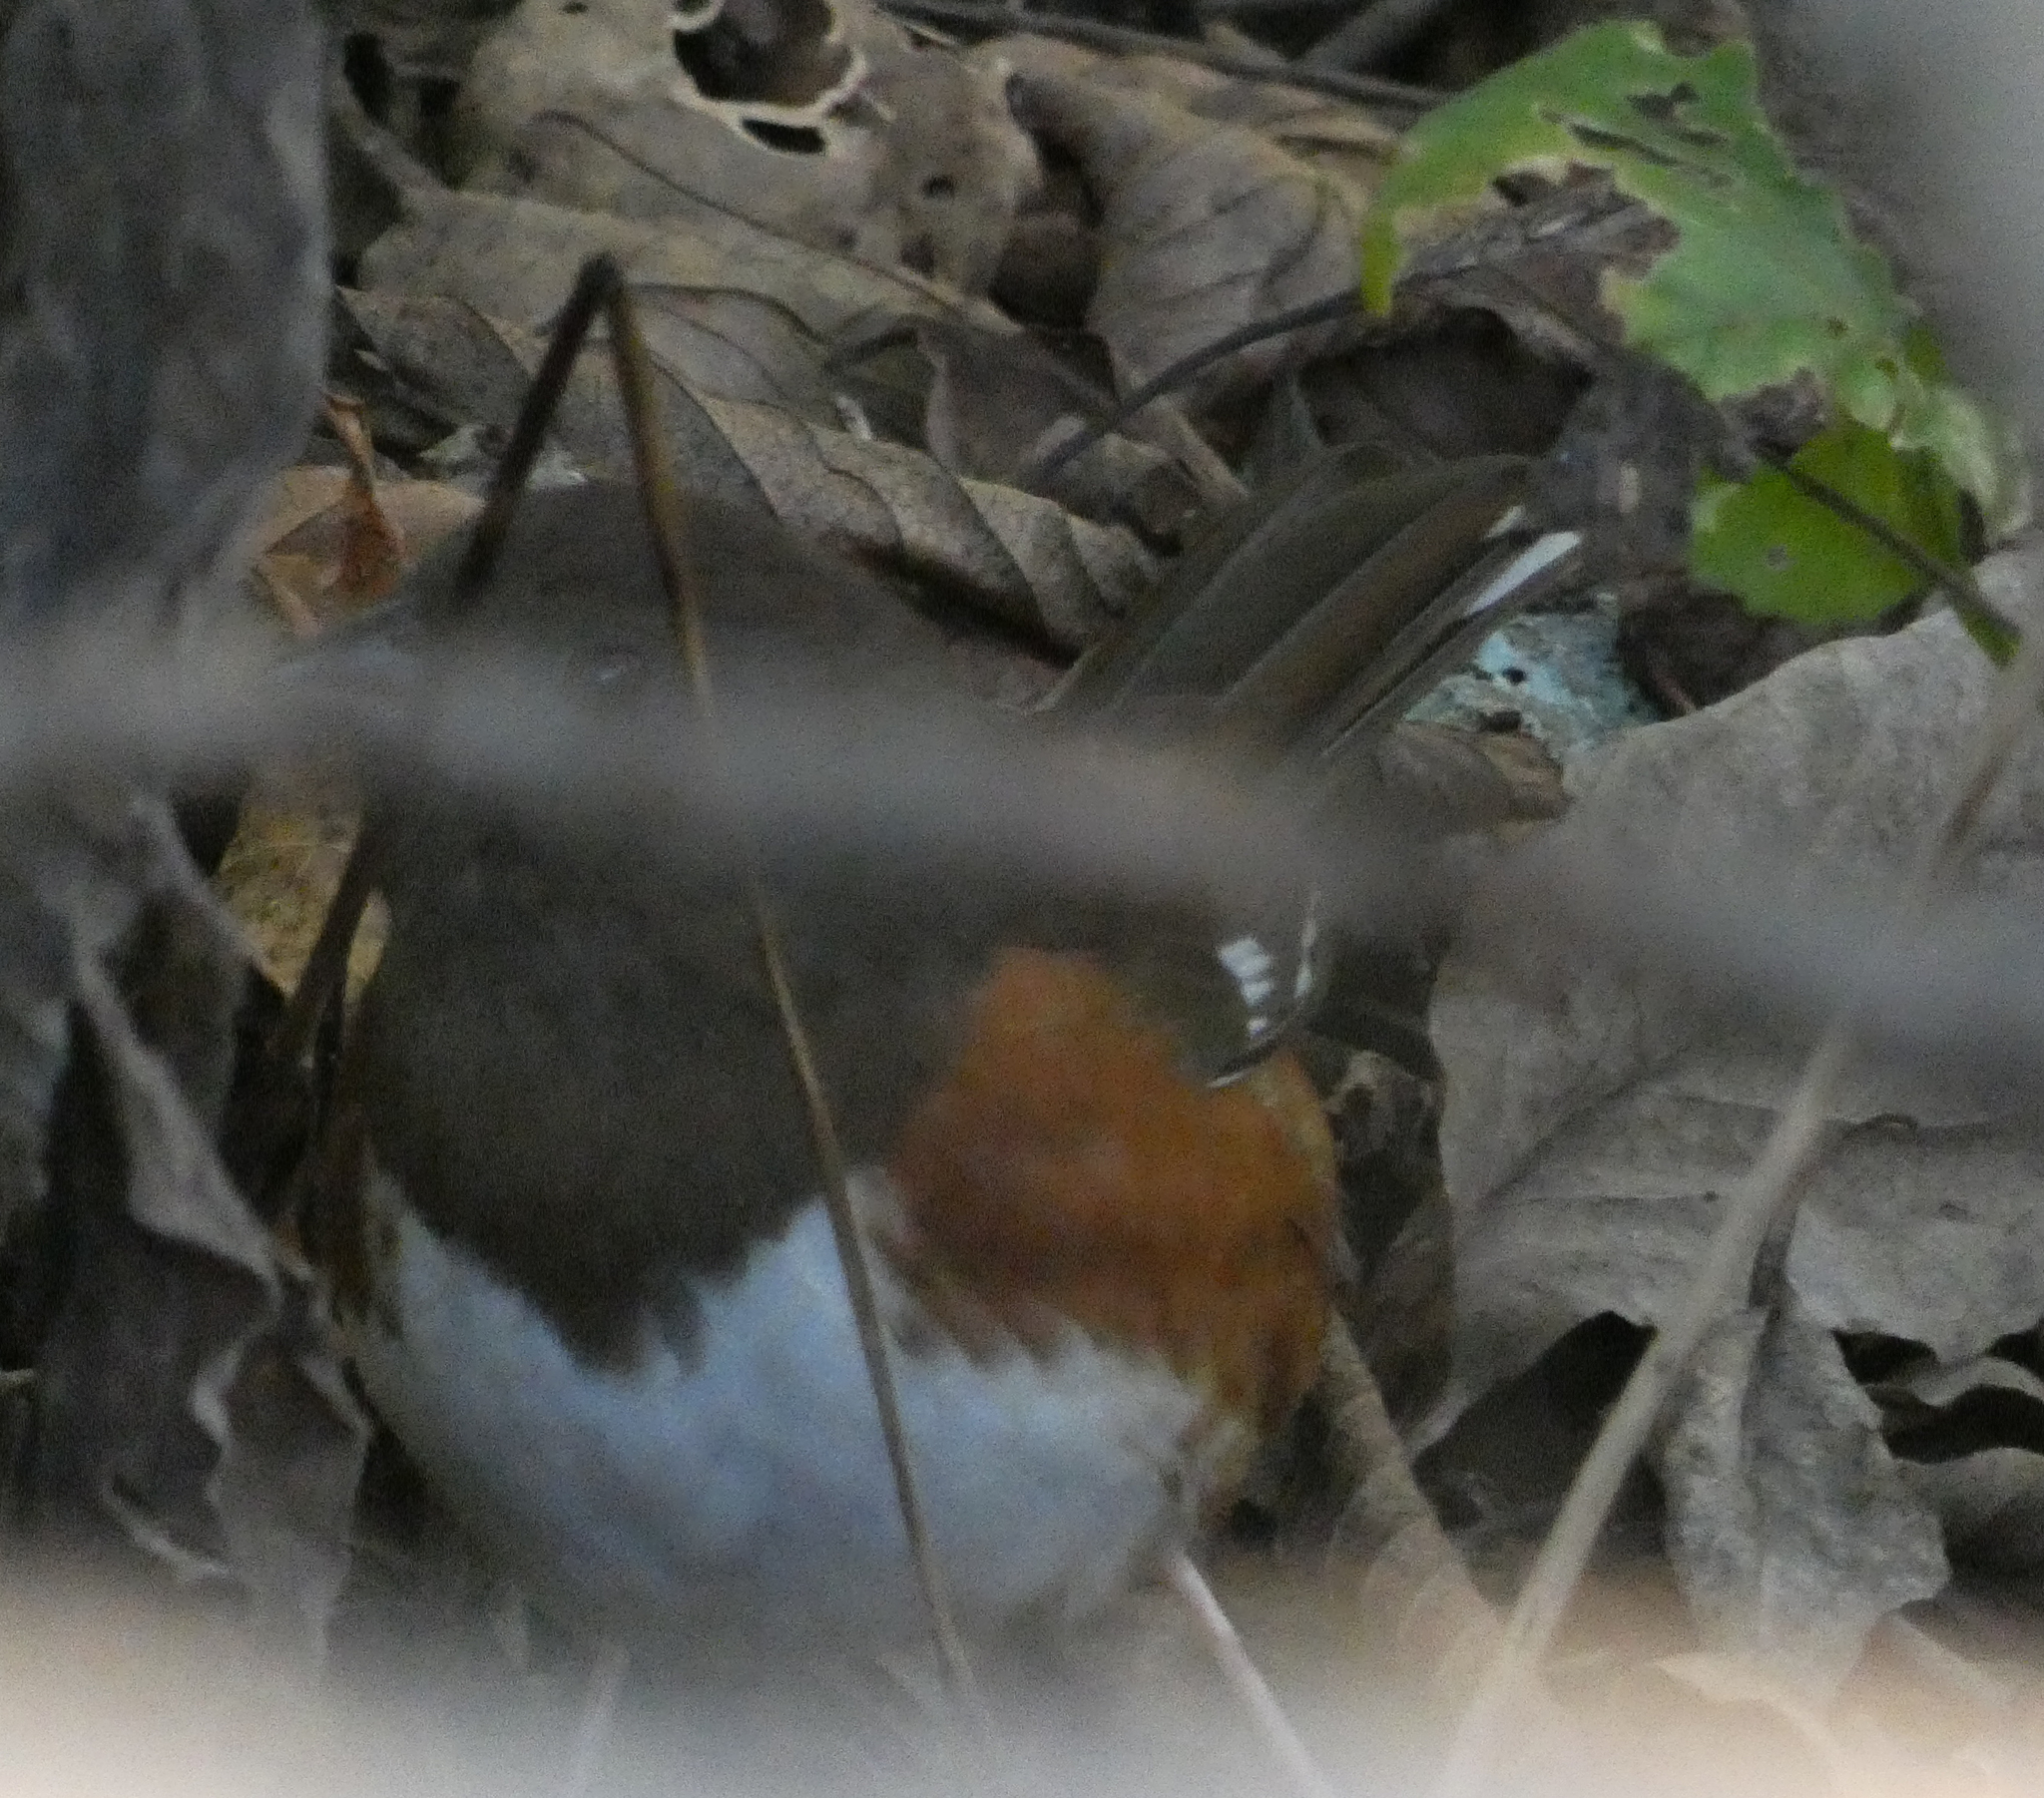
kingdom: Animalia
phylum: Chordata
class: Aves
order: Passeriformes
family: Passerellidae
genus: Pipilo
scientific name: Pipilo erythrophthalmus
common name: Eastern towhee
